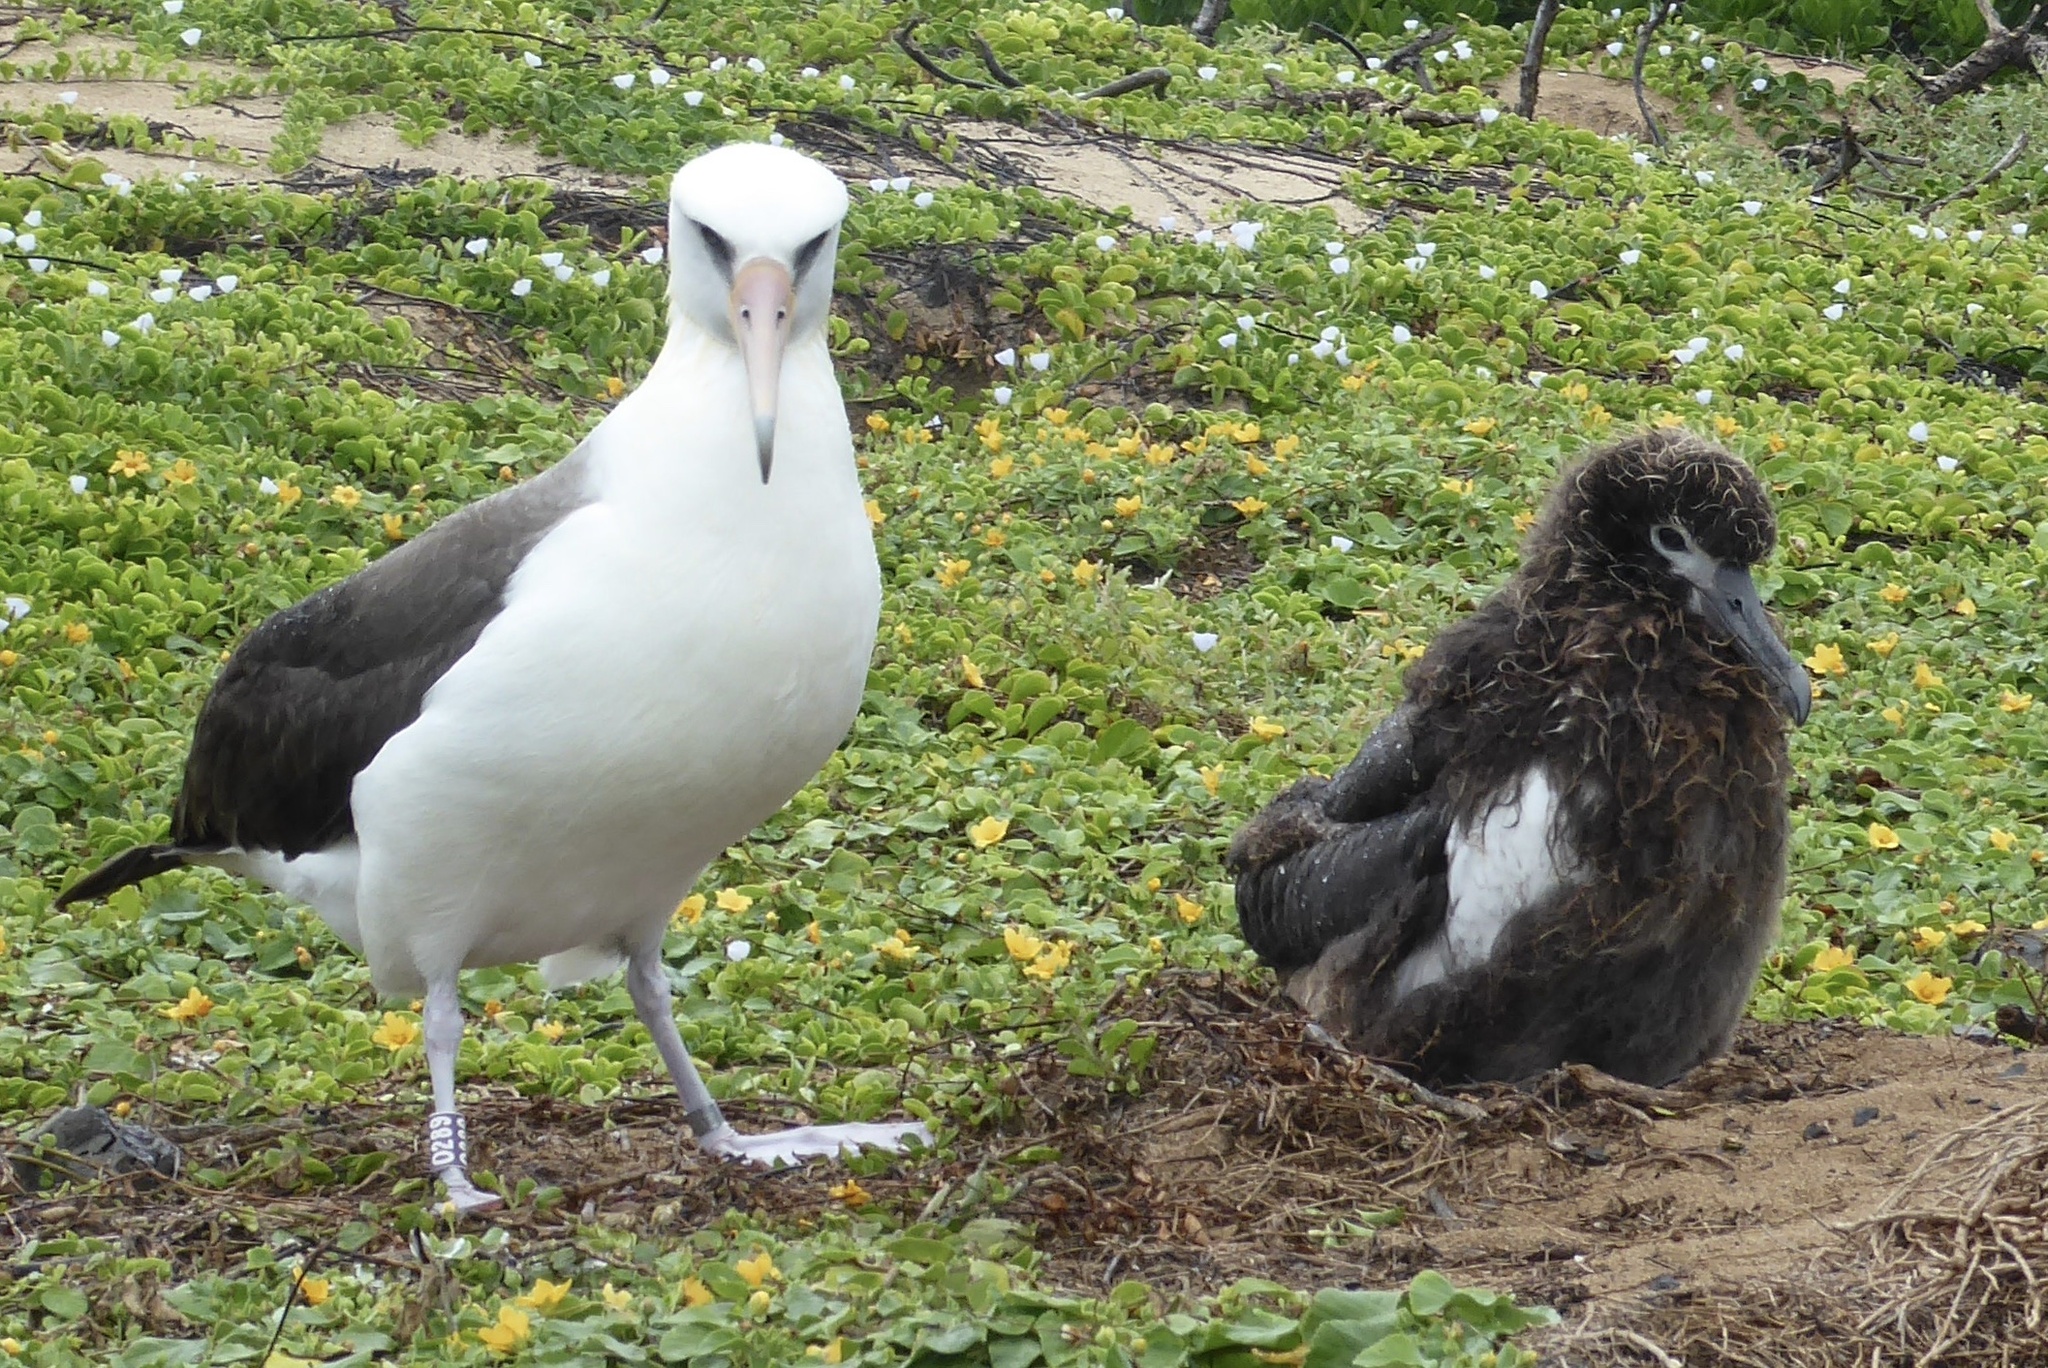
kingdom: Animalia
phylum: Chordata
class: Aves
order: Procellariiformes
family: Diomedeidae
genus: Phoebastria
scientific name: Phoebastria immutabilis
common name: Laysan albatross
